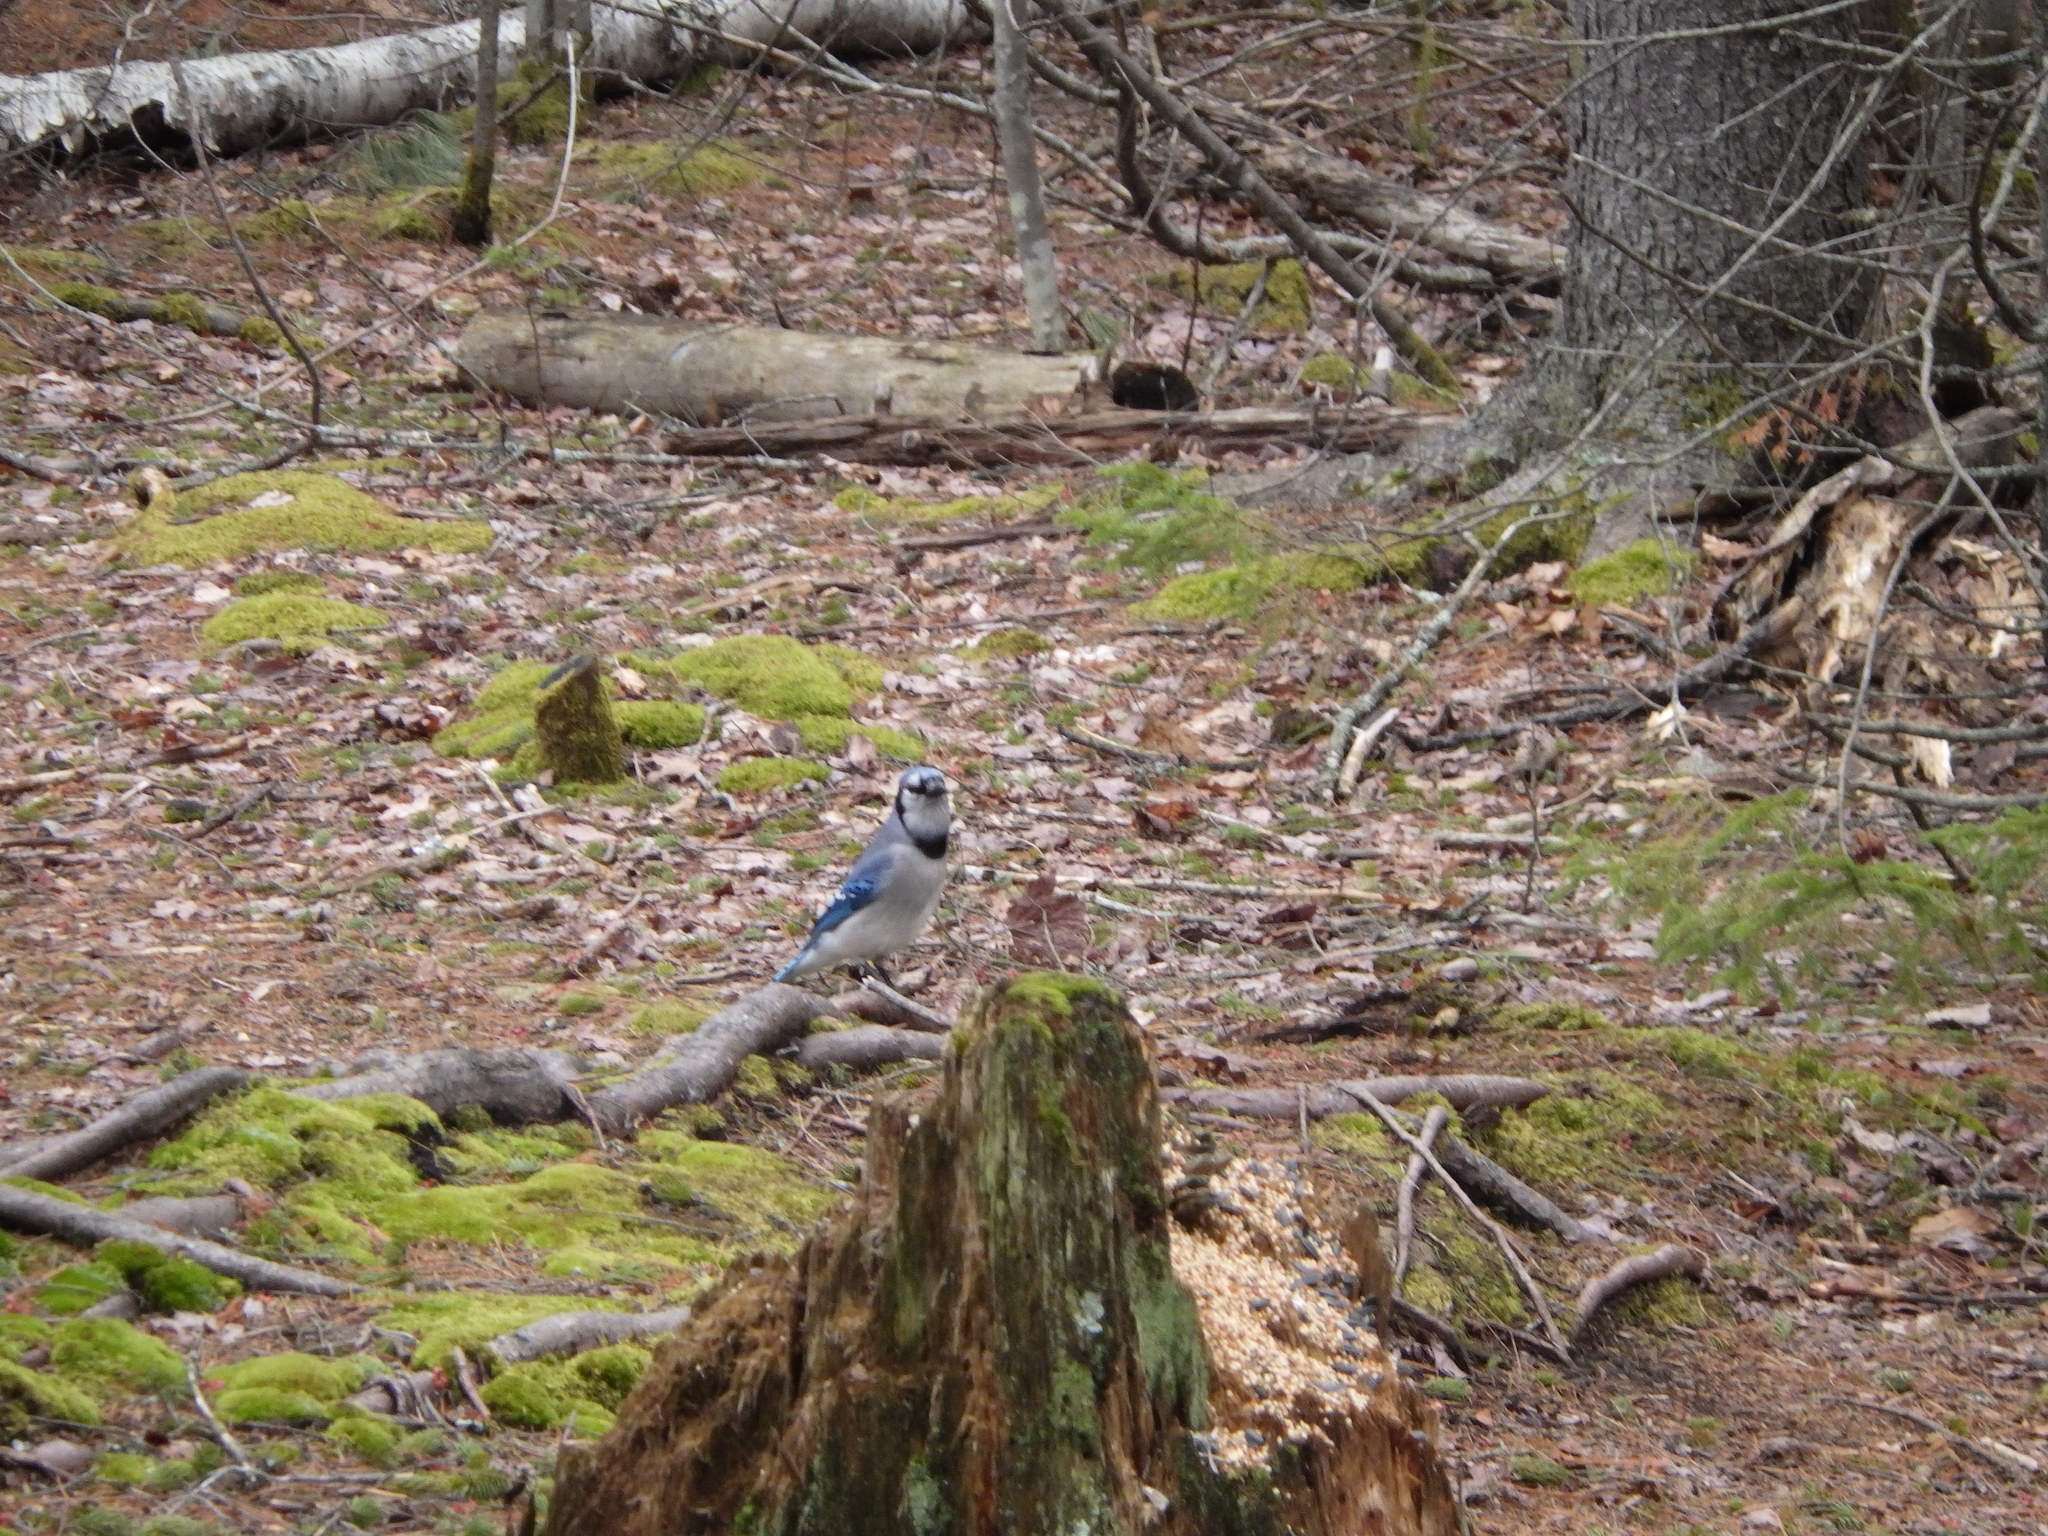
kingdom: Animalia
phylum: Chordata
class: Aves
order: Passeriformes
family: Corvidae
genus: Cyanocitta
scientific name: Cyanocitta cristata
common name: Blue jay
